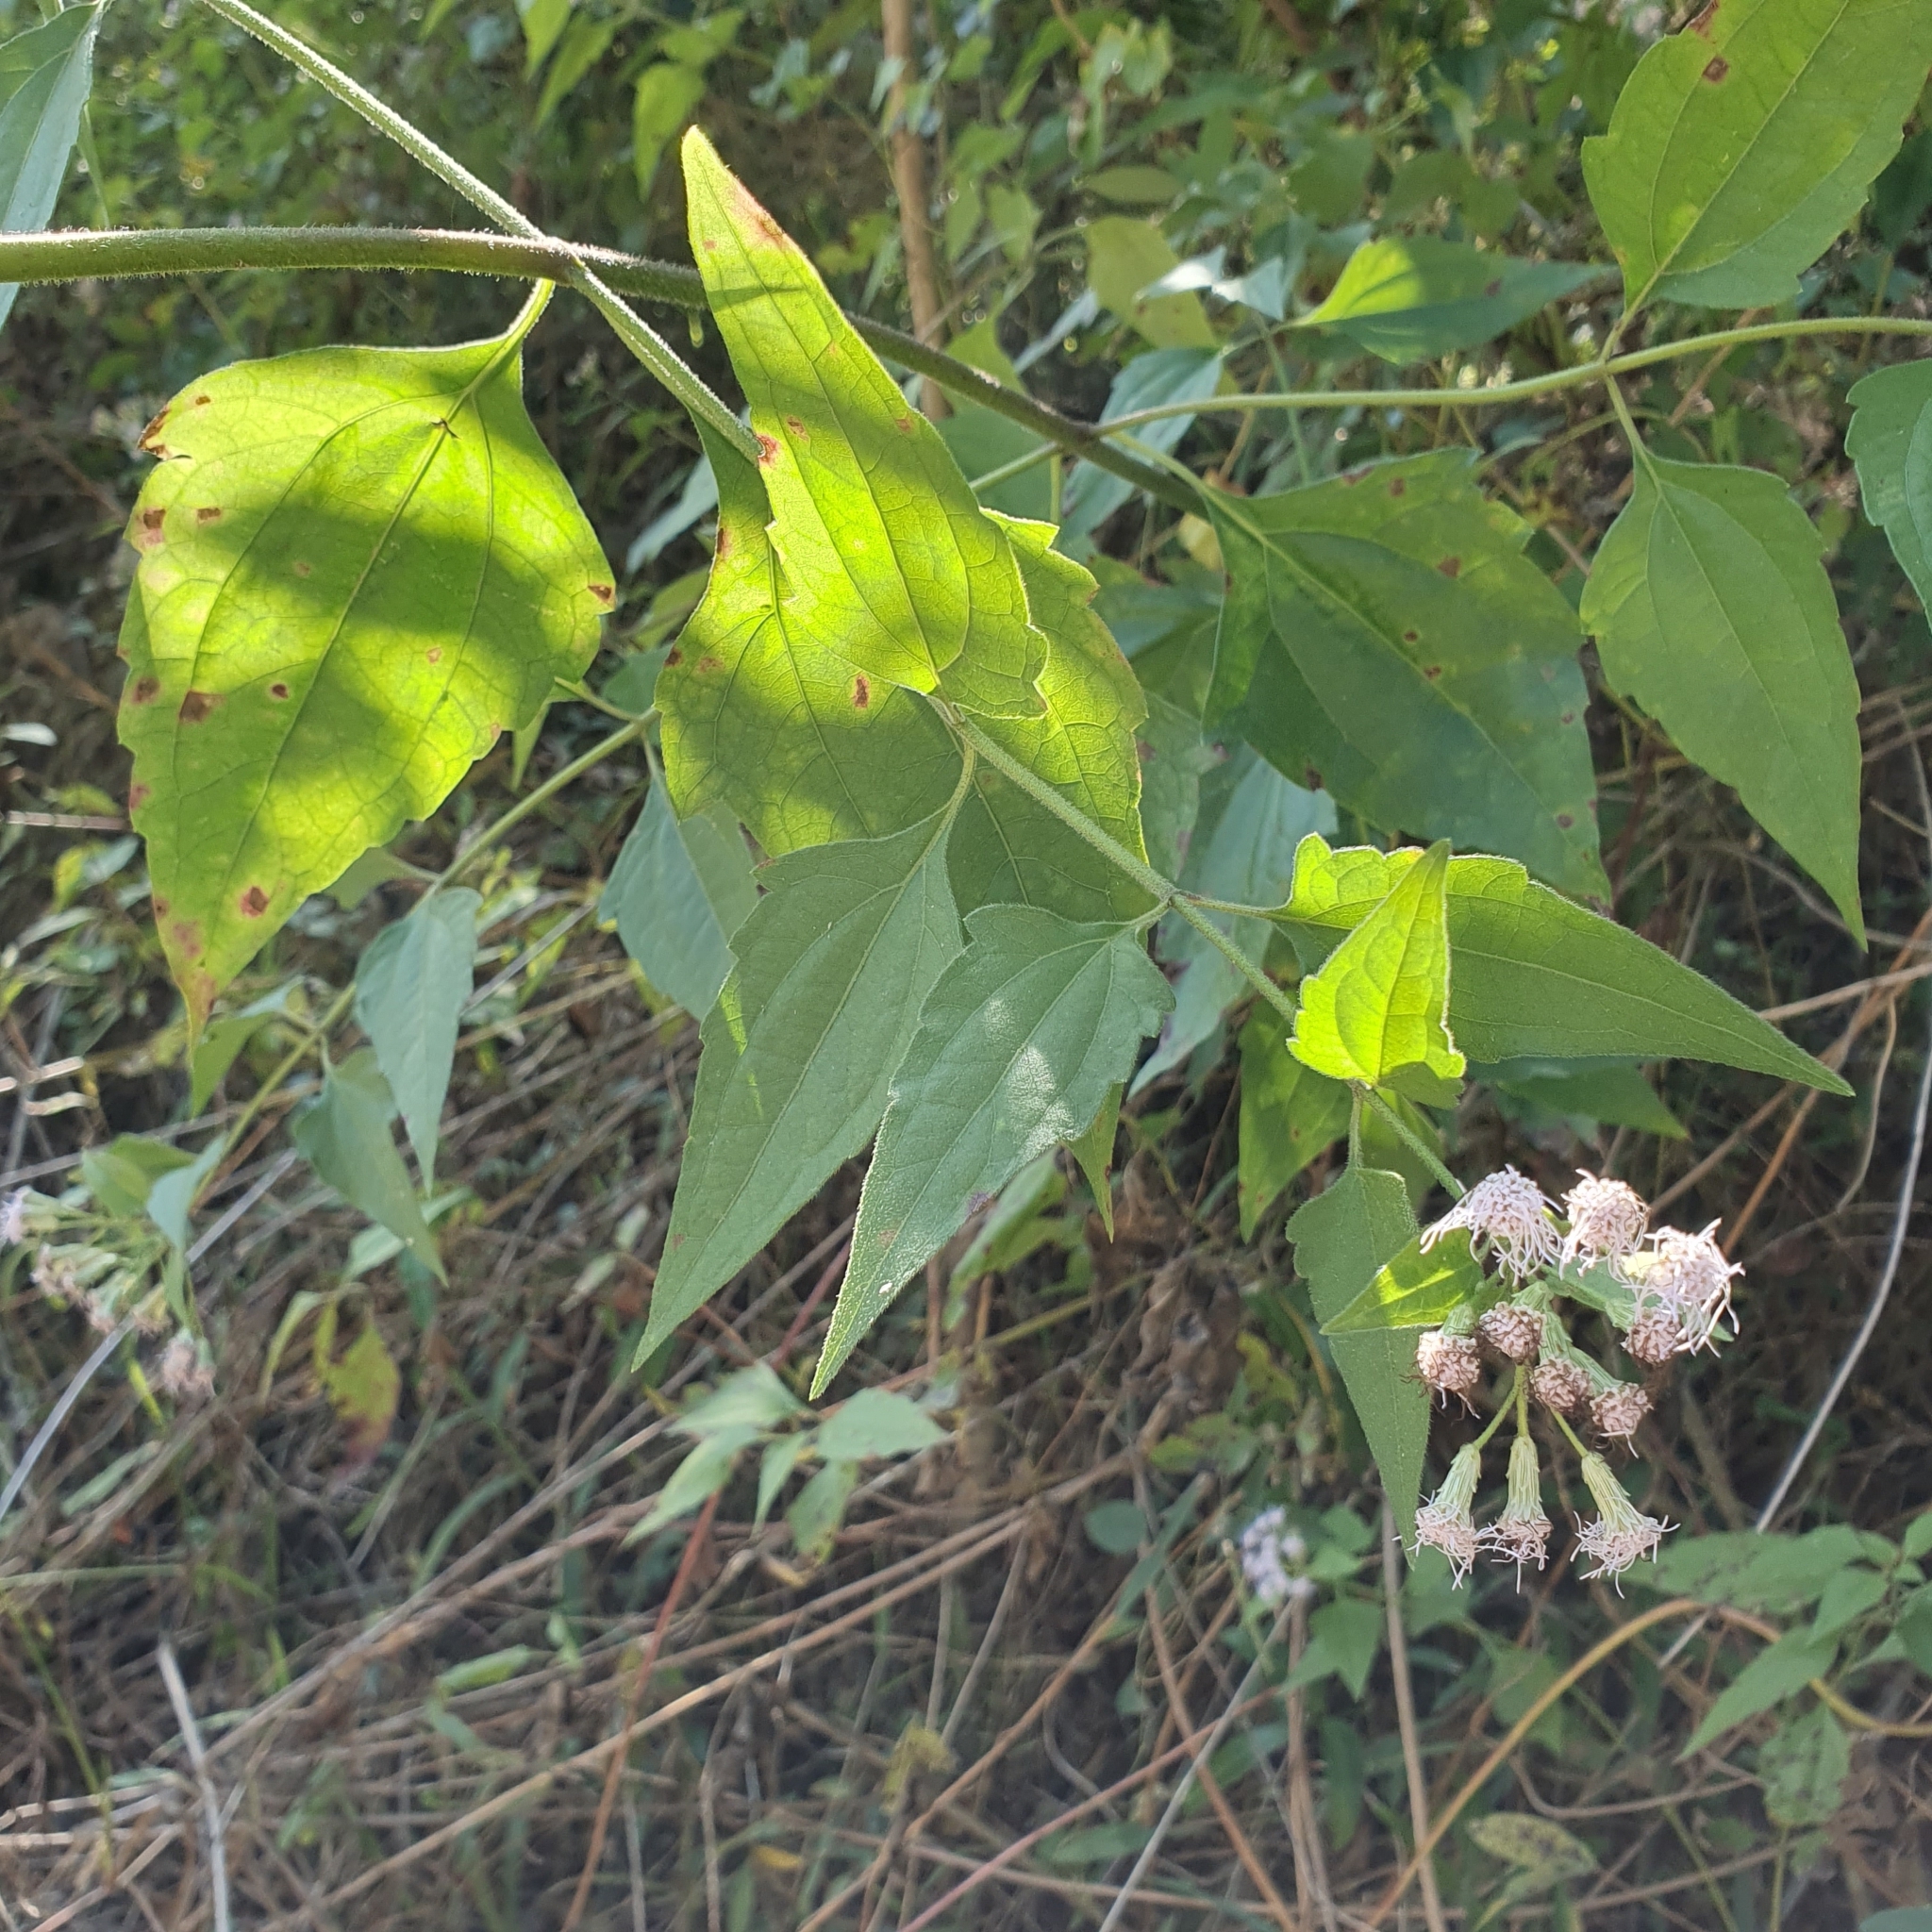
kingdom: Plantae
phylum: Tracheophyta
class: Magnoliopsida
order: Asterales
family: Asteraceae
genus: Chromolaena
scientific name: Chromolaena odorata
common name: Siamweed
